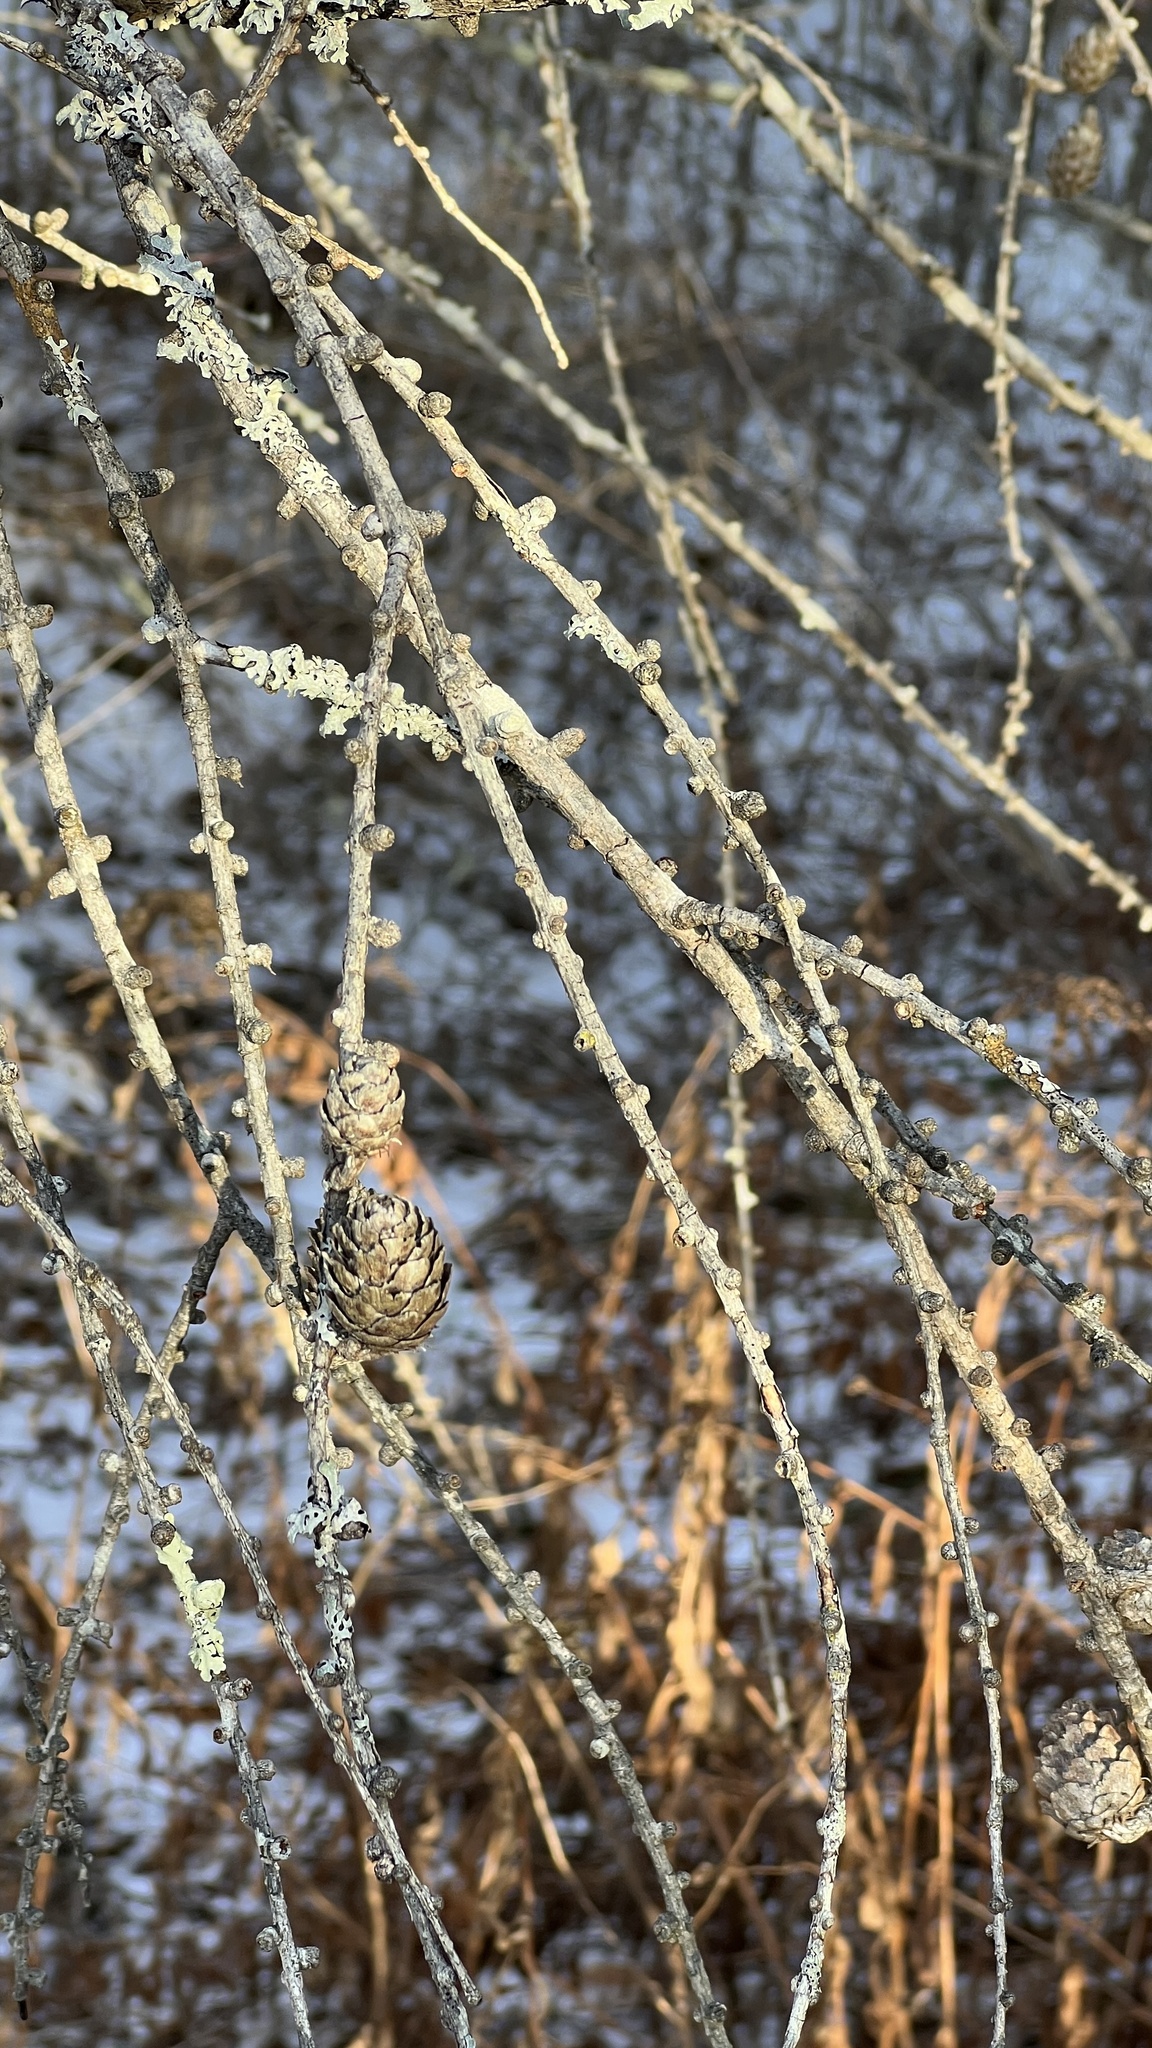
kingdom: Plantae
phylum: Tracheophyta
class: Pinopsida
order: Pinales
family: Pinaceae
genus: Larix
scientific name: Larix decidua
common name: European larch
